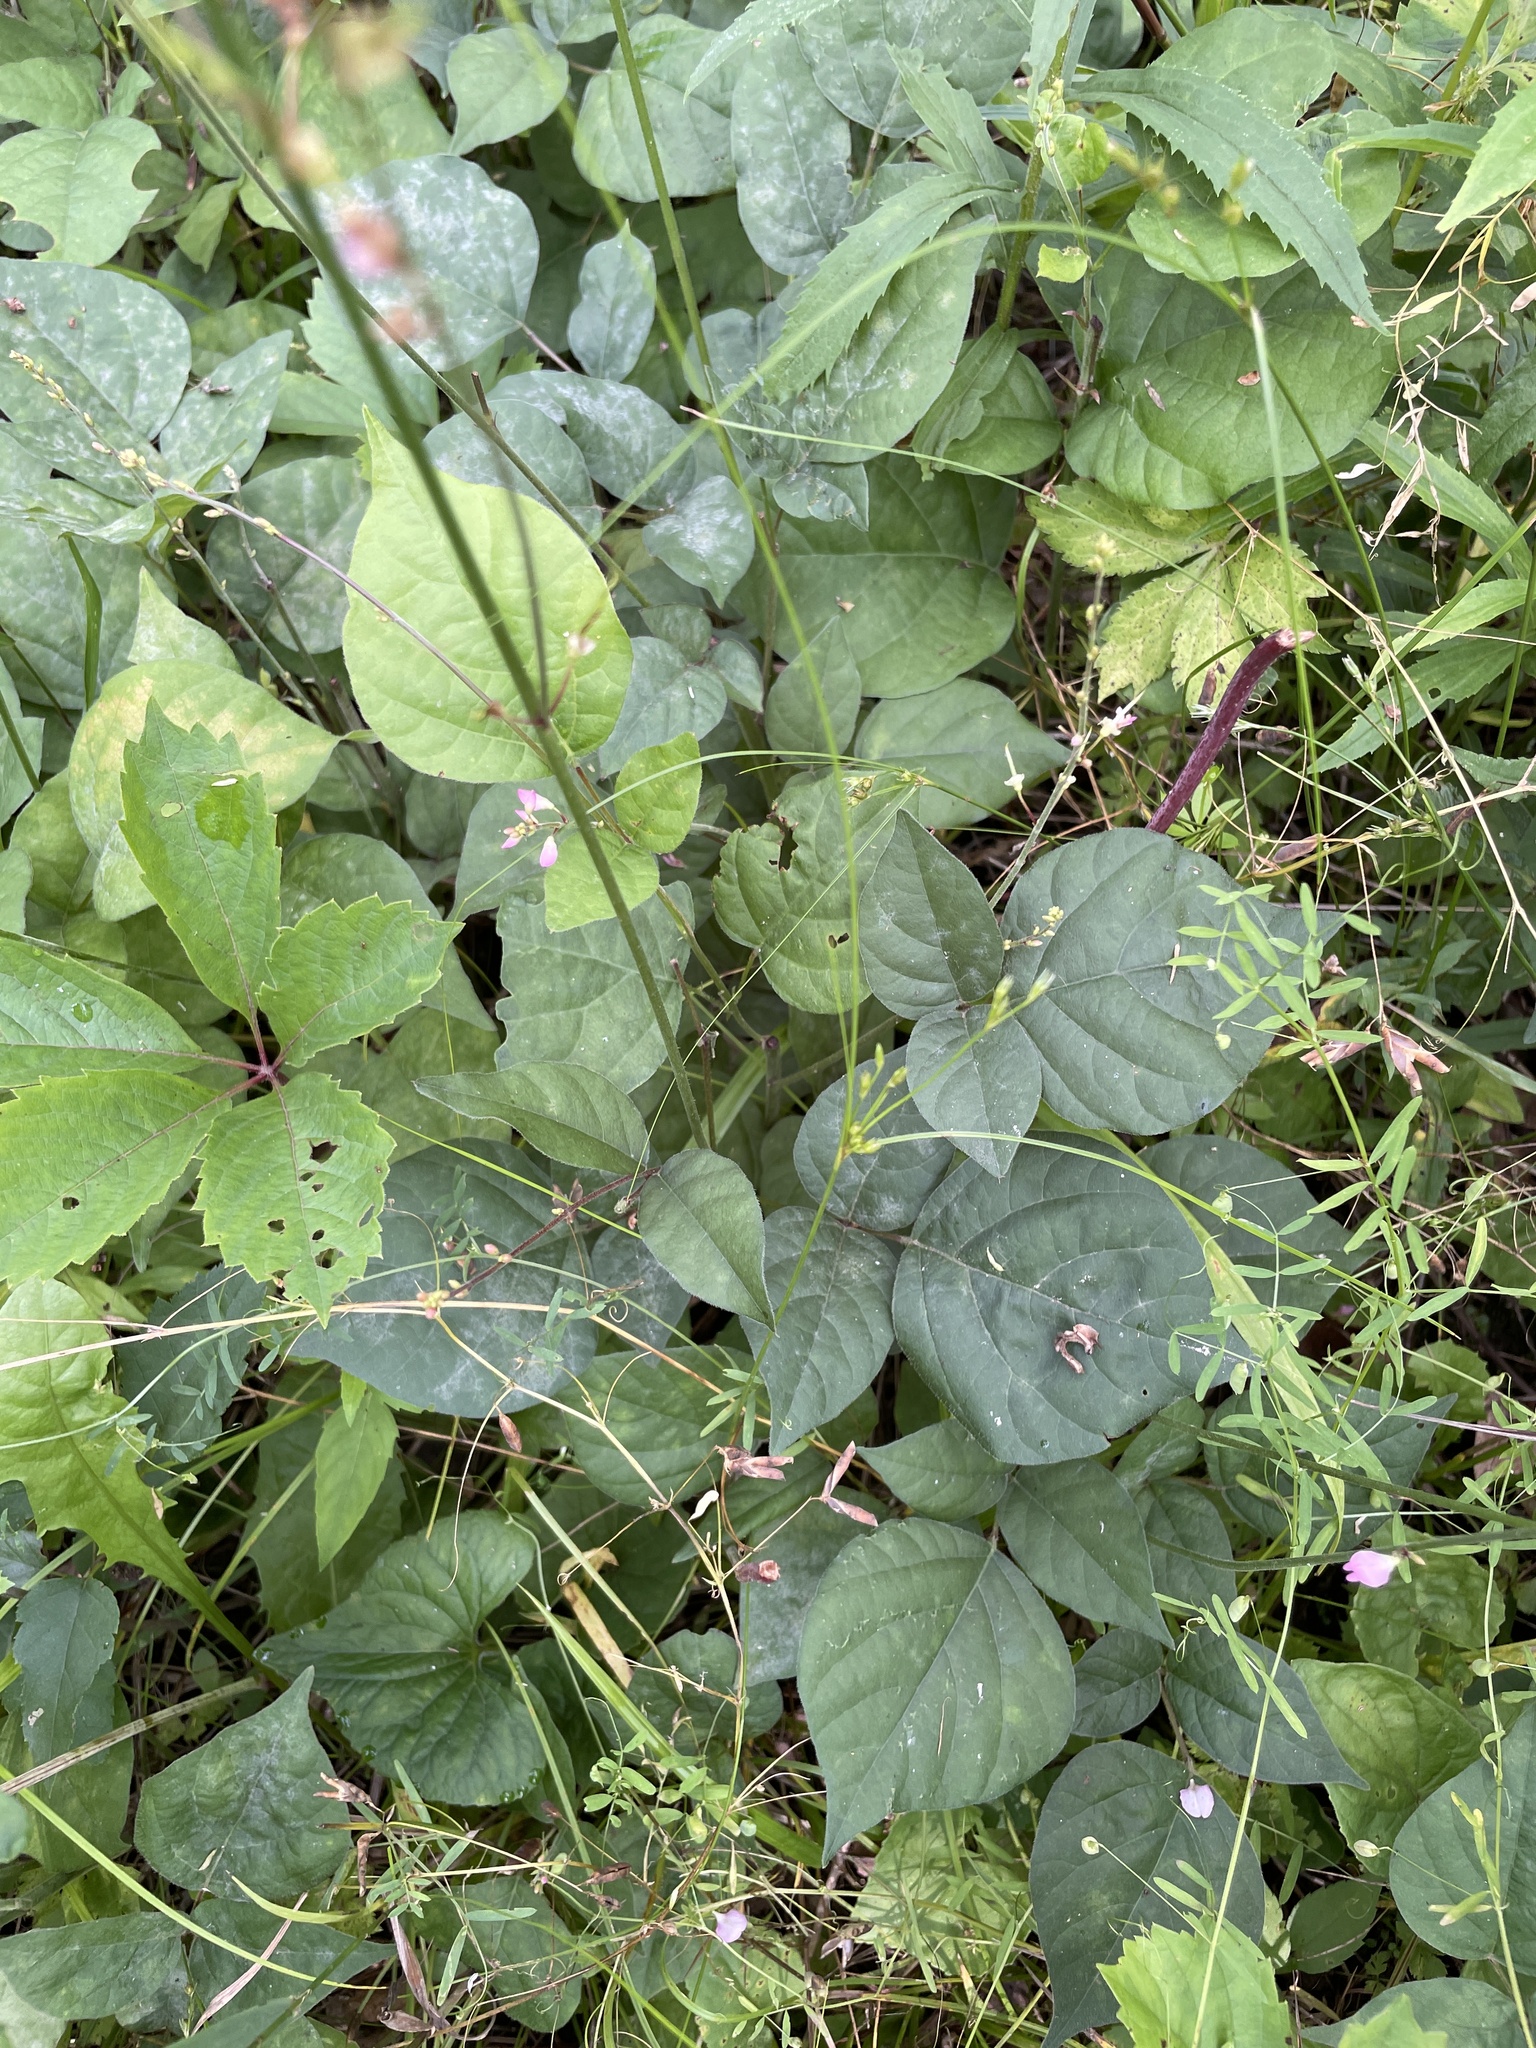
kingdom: Plantae
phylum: Tracheophyta
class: Magnoliopsida
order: Fabales
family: Fabaceae
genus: Hylodesmum
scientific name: Hylodesmum glutinosum
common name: Clustered-leaved tick-trefoil
